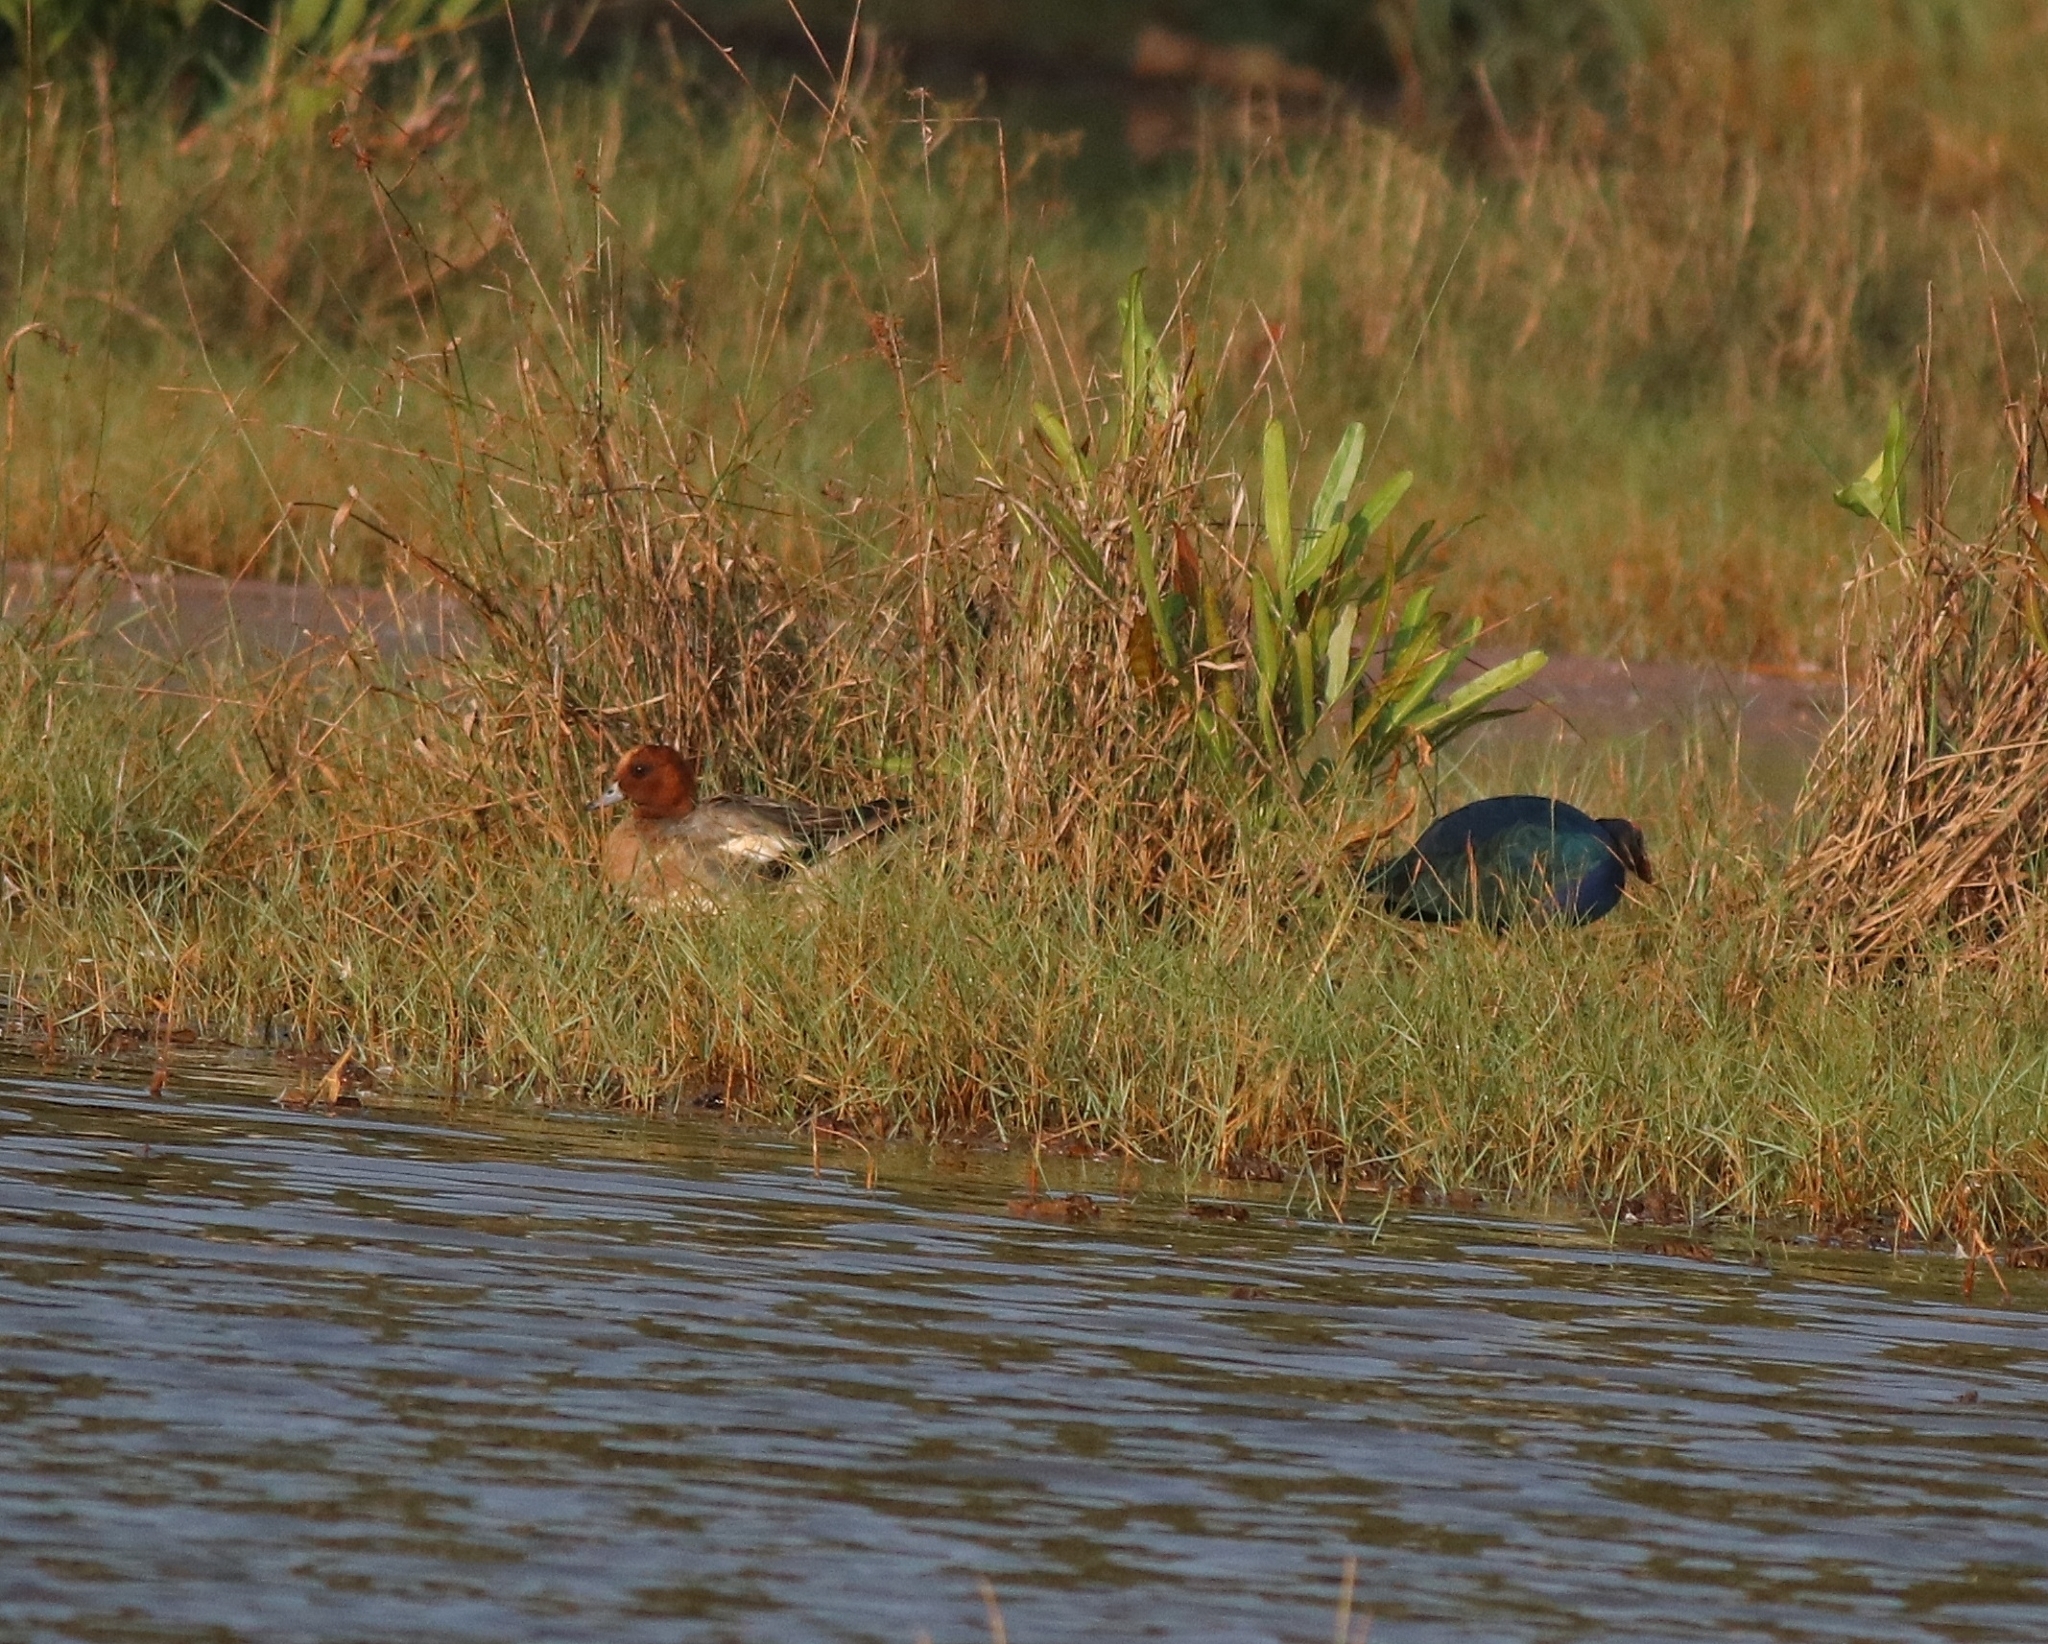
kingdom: Animalia
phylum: Chordata
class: Aves
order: Anseriformes
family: Anatidae
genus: Mareca
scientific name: Mareca penelope
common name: Eurasian wigeon
